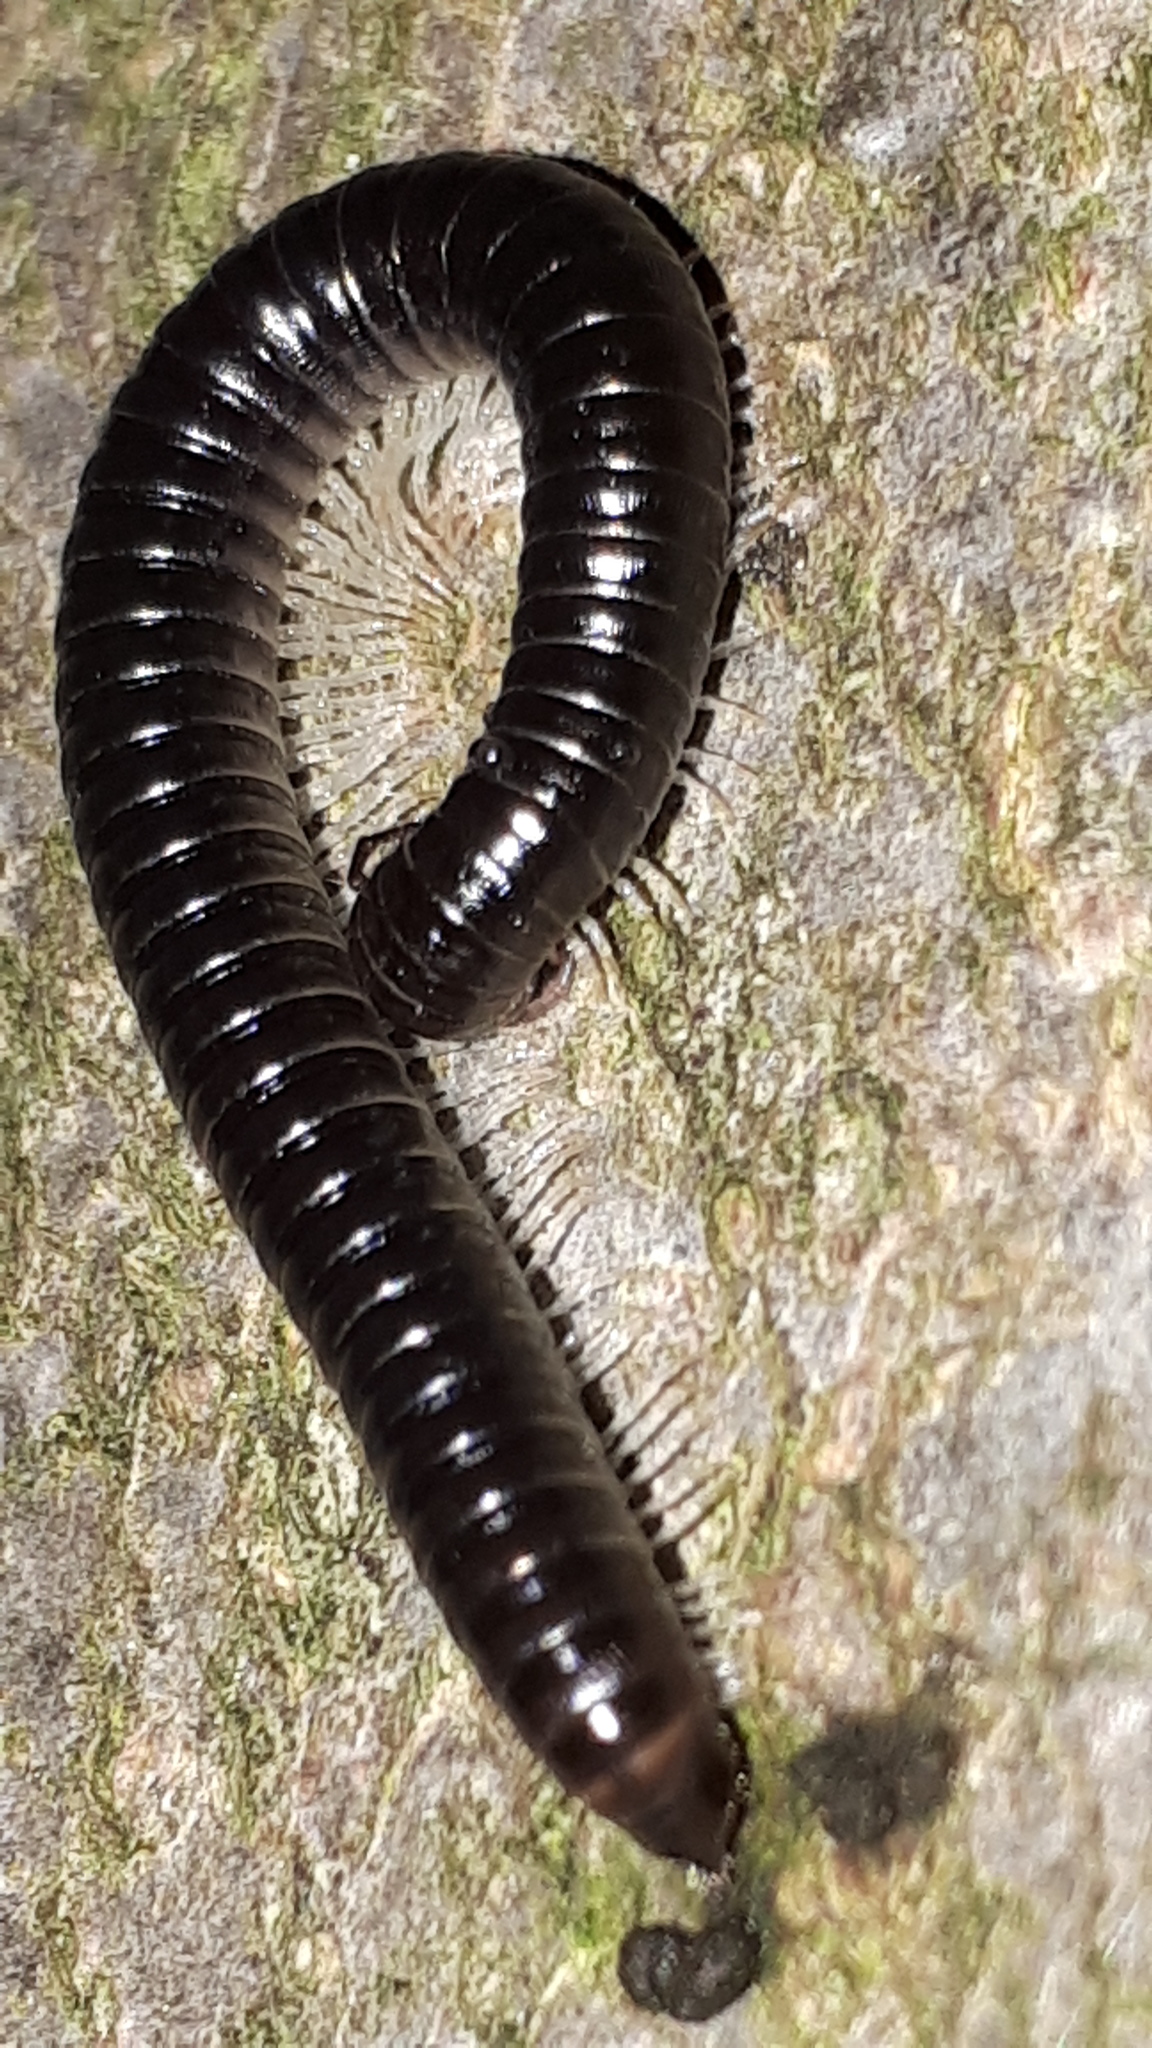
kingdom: Animalia
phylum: Arthropoda
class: Diplopoda
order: Julida
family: Julidae
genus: Tachypodoiulus
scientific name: Tachypodoiulus niger
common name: White-legged snake millipede
